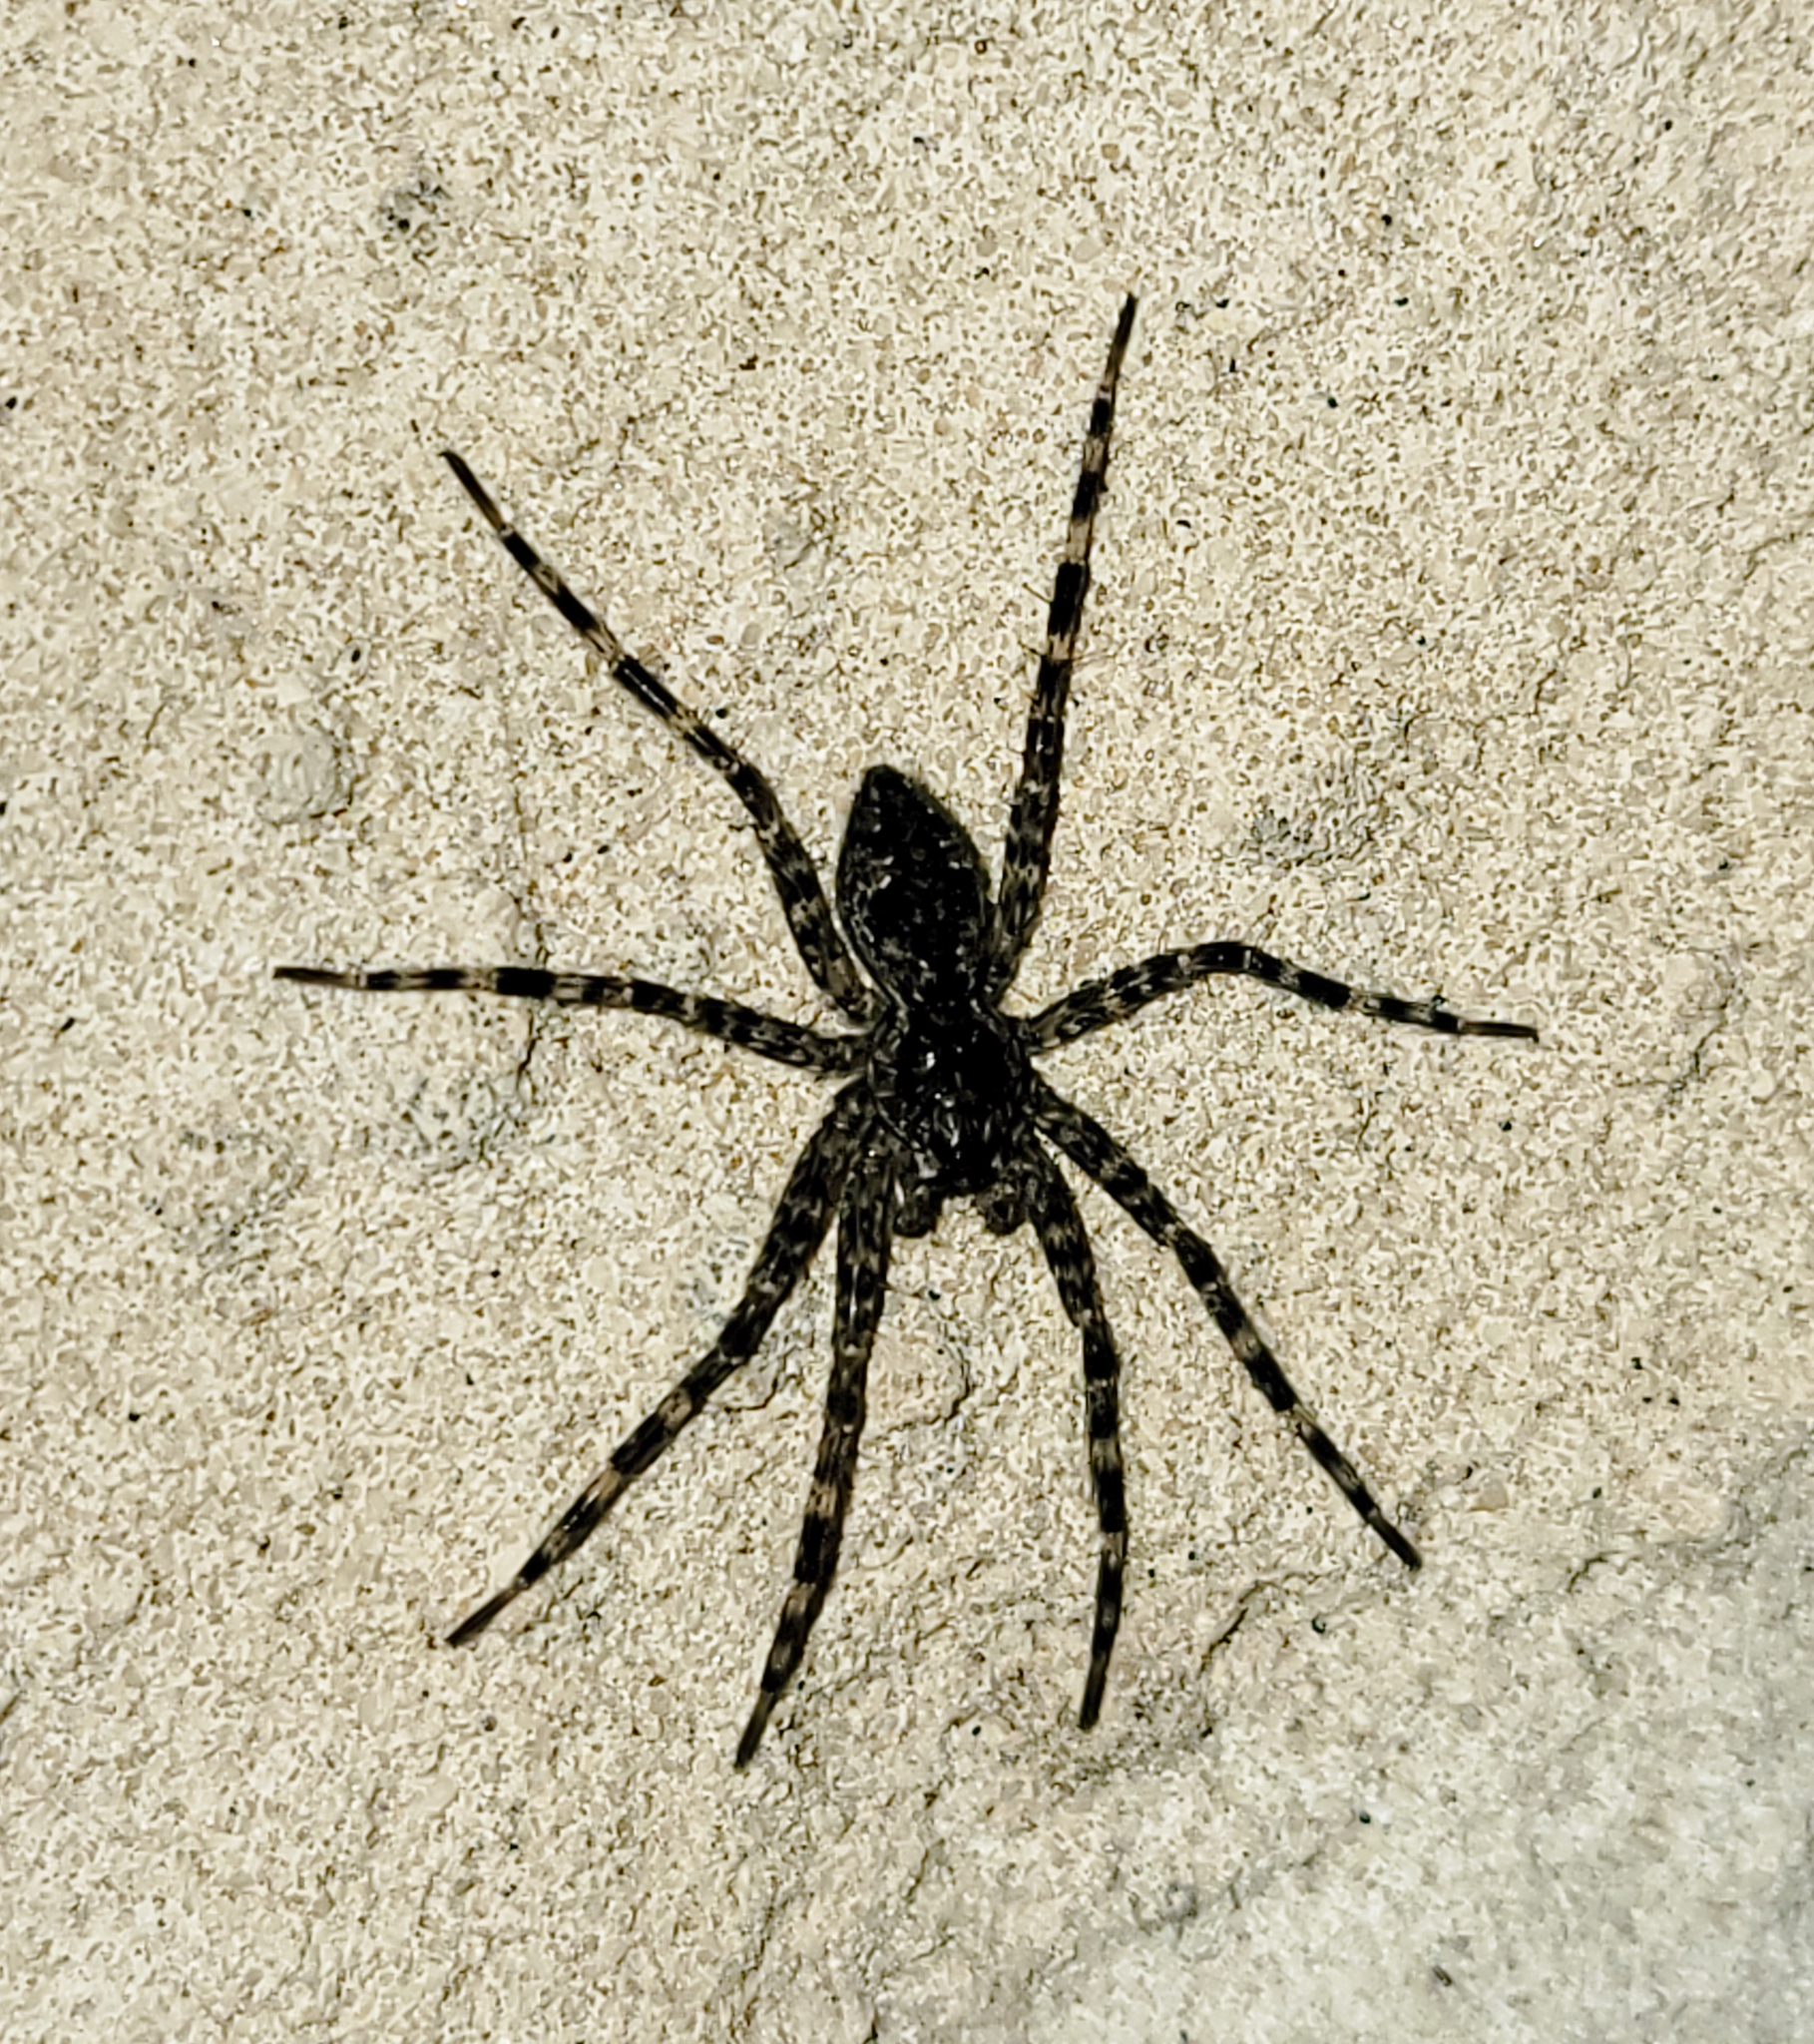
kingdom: Animalia
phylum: Arthropoda
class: Arachnida
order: Araneae
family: Pisauridae
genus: Dolomedes
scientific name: Dolomedes tenebrosus
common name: Dark fishing spider
